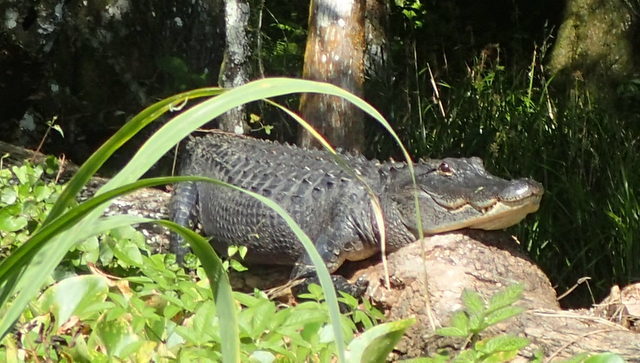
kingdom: Animalia
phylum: Chordata
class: Crocodylia
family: Alligatoridae
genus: Alligator
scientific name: Alligator mississippiensis
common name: American alligator
